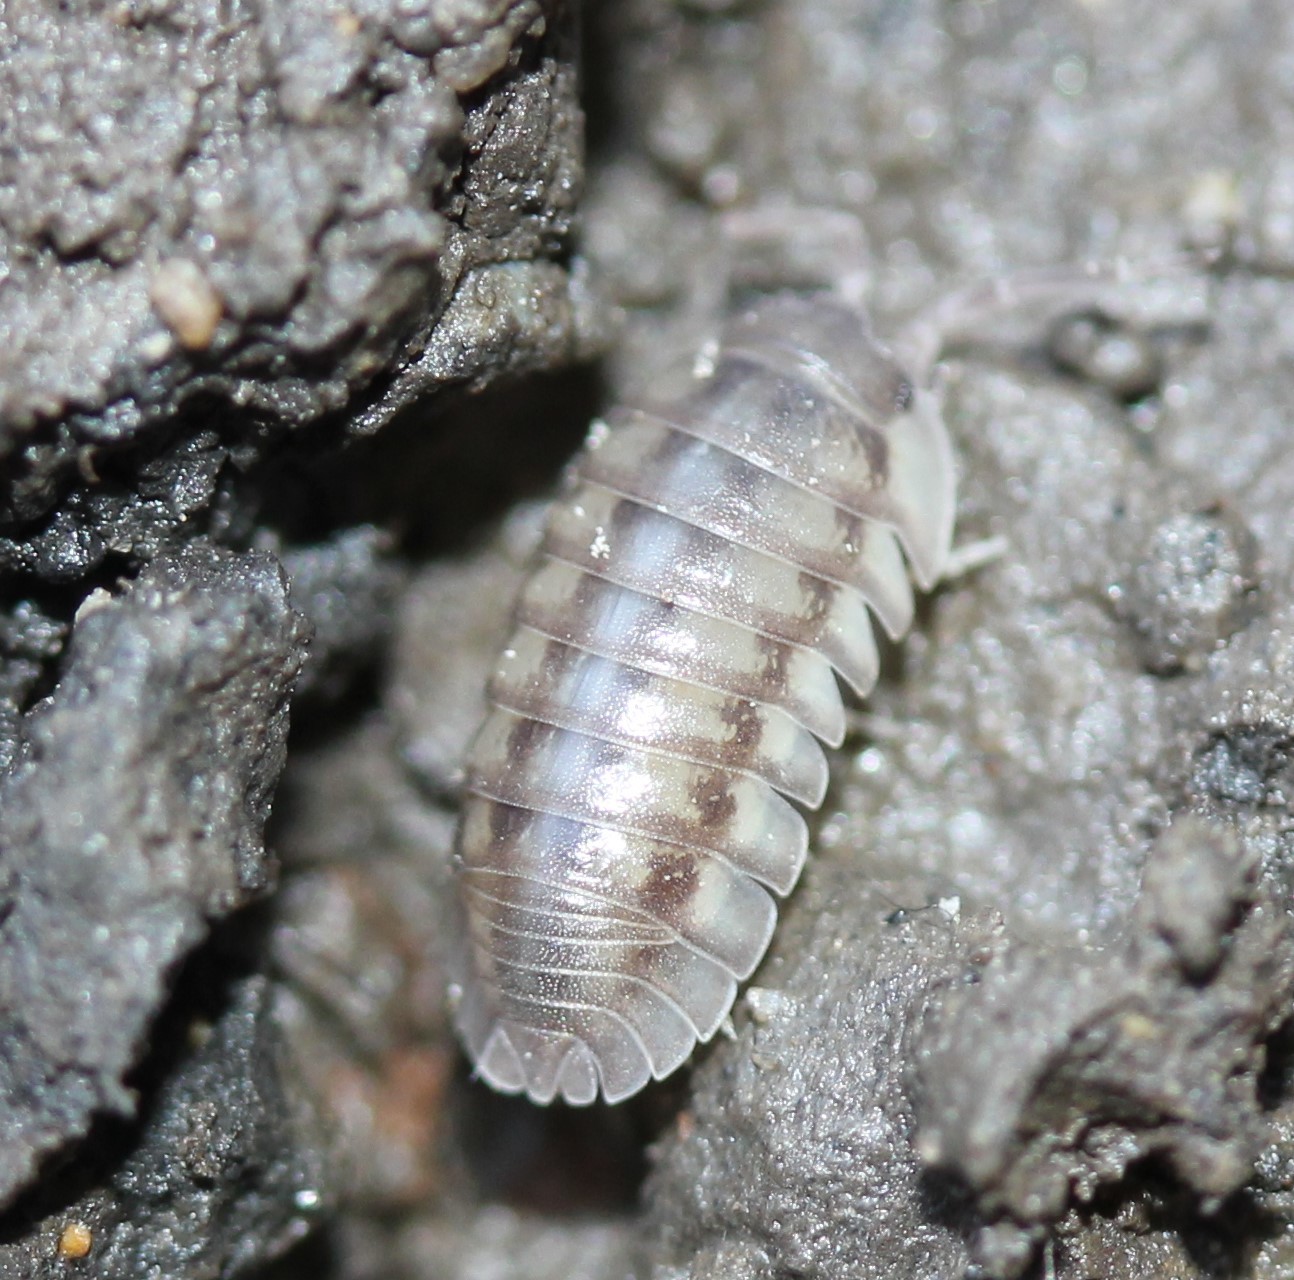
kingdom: Animalia
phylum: Arthropoda
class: Malacostraca
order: Isopoda
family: Armadillidiidae
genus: Armadillidium
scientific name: Armadillidium nasatum
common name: Isopod
